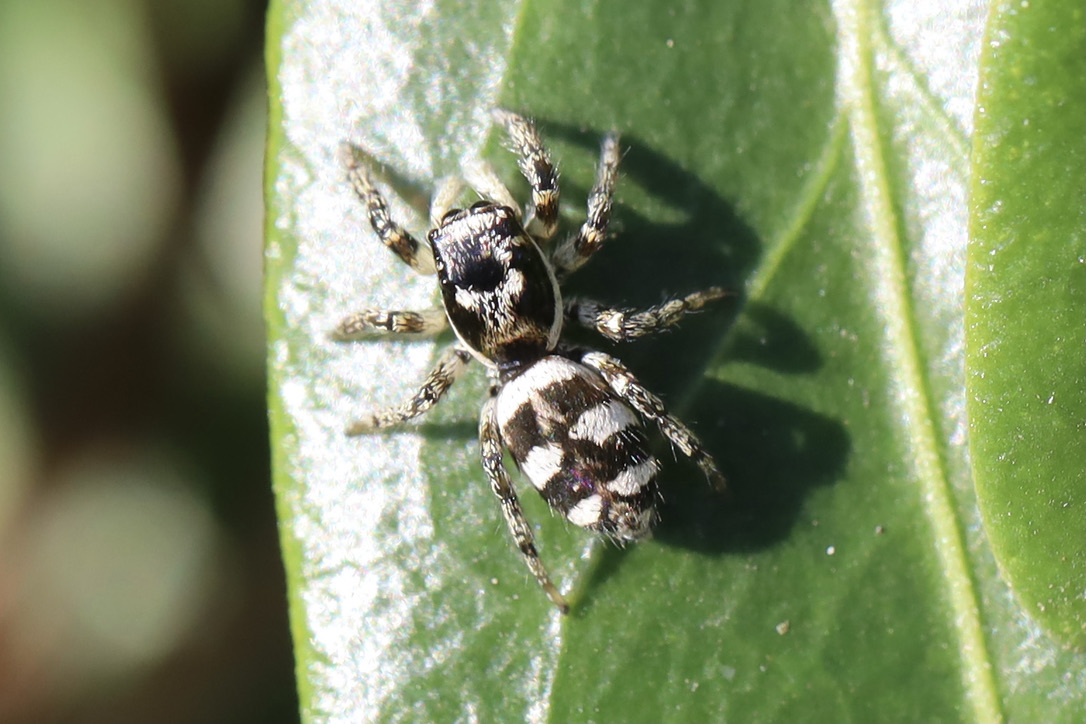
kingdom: Animalia
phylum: Arthropoda
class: Arachnida
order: Araneae
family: Salticidae
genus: Salticus
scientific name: Salticus scenicus
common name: Zebra jumper
